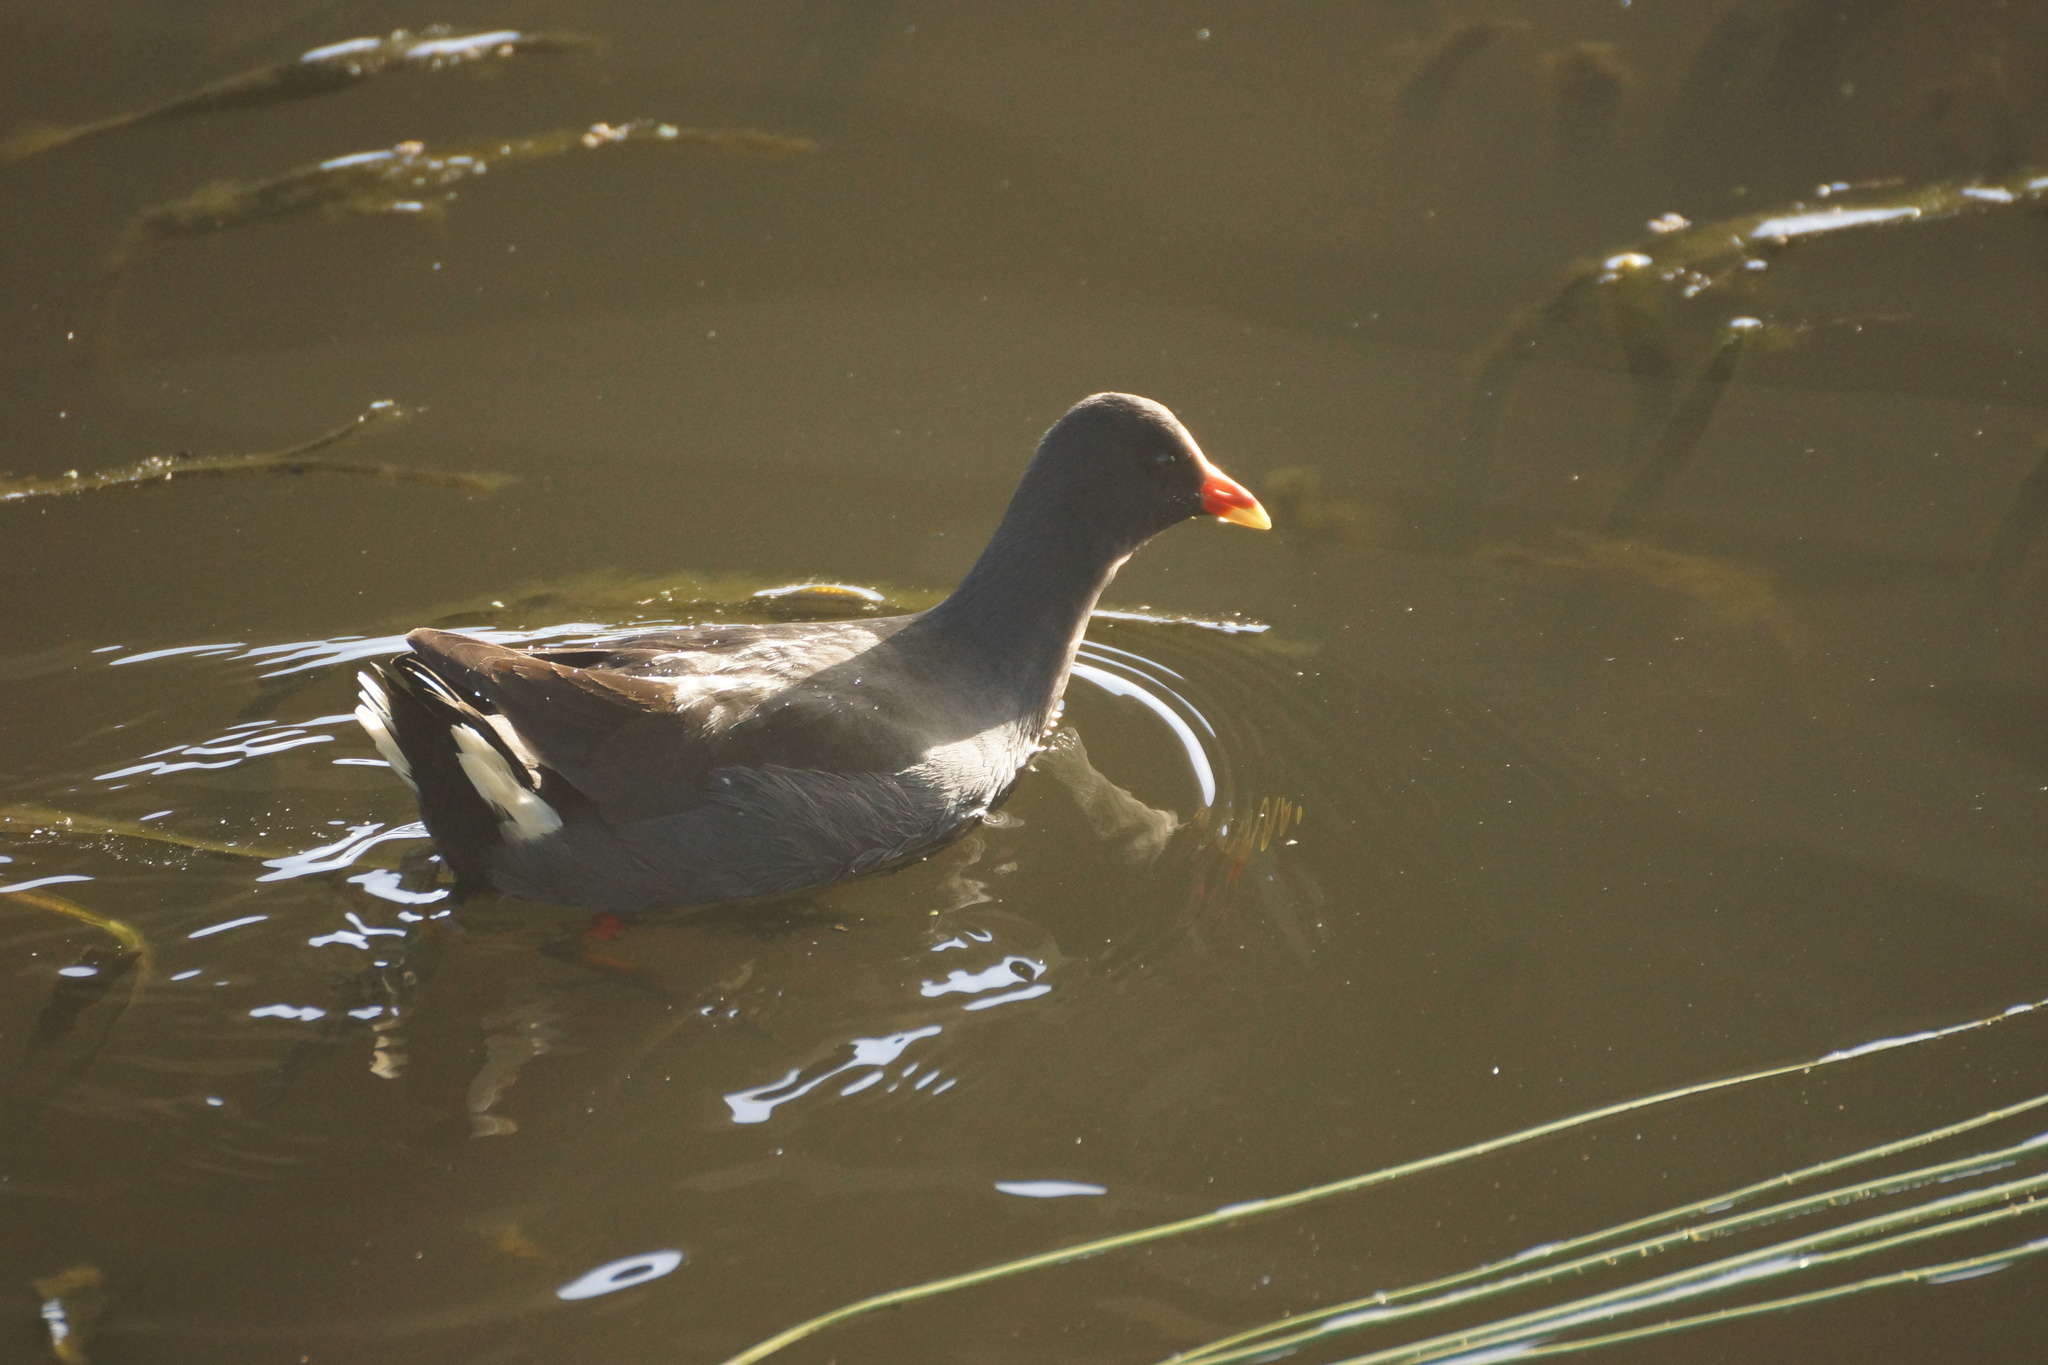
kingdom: Animalia
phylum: Chordata
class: Aves
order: Gruiformes
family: Rallidae
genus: Gallinula
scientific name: Gallinula tenebrosa
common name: Dusky moorhen
